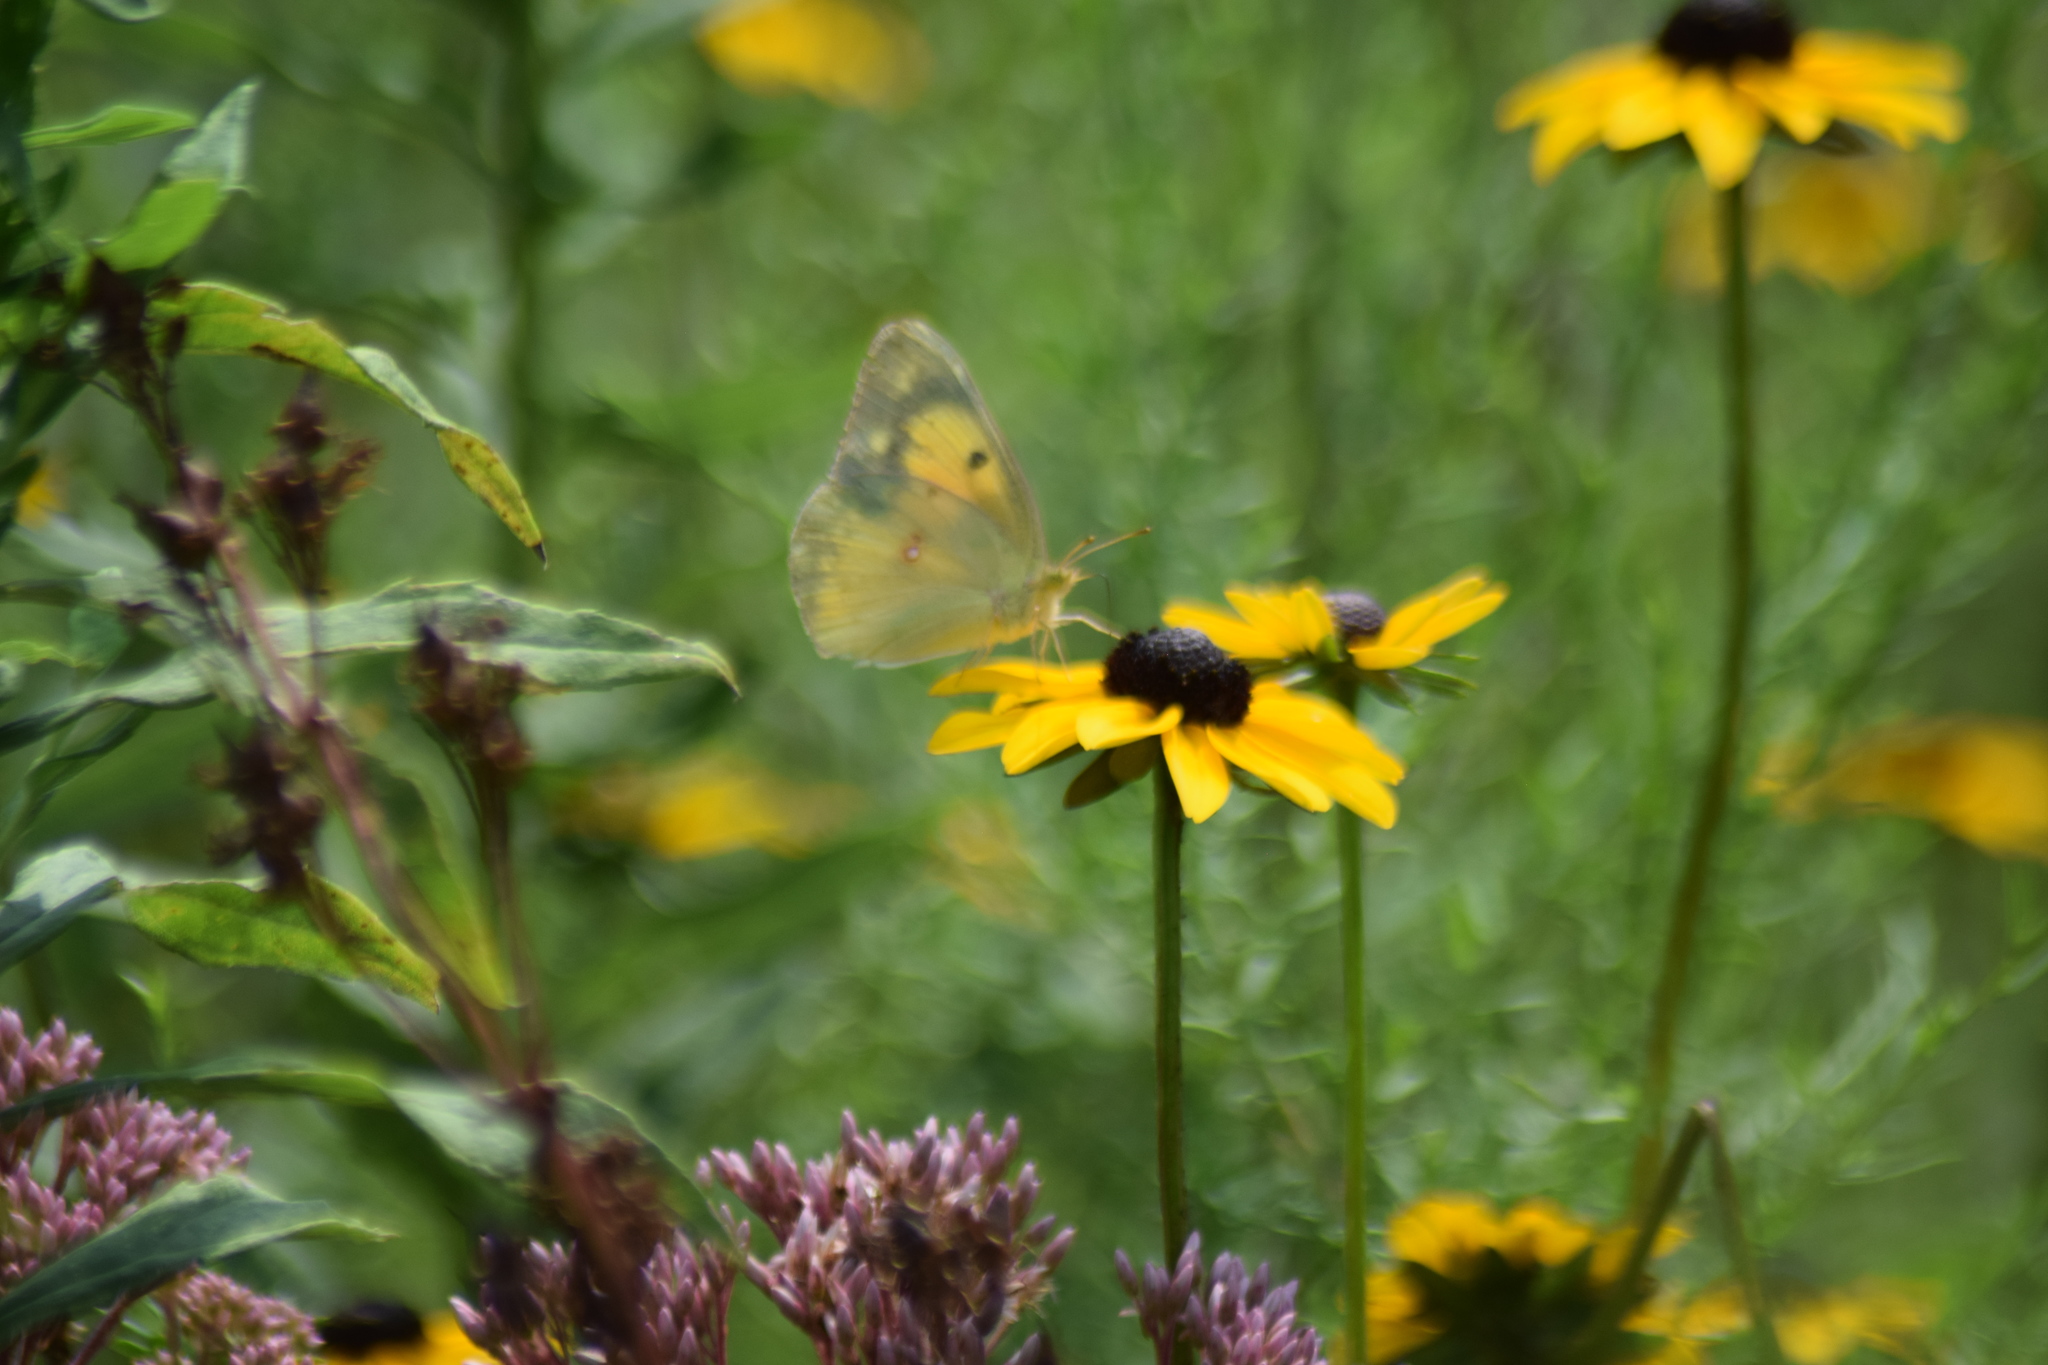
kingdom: Animalia
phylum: Arthropoda
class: Insecta
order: Lepidoptera
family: Pieridae
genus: Colias
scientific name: Colias eurytheme
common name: Alfalfa butterfly
